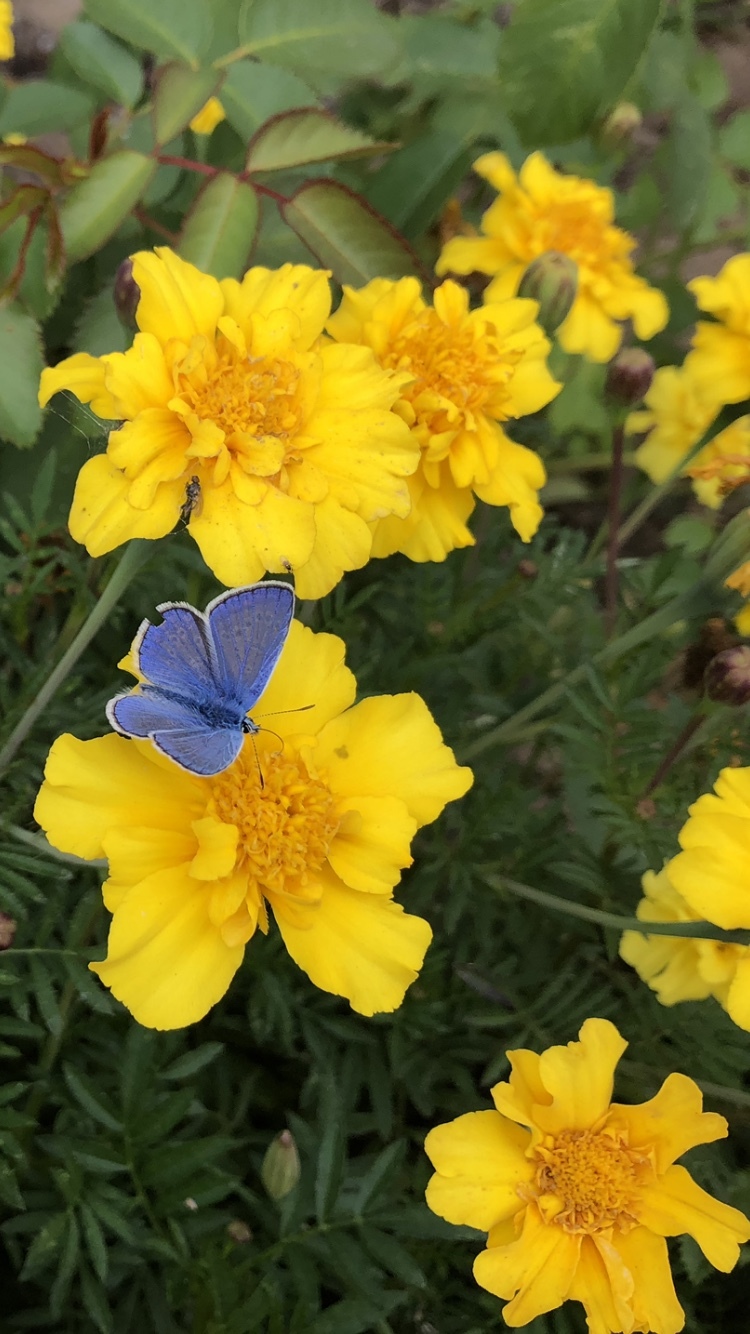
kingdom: Animalia
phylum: Arthropoda
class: Insecta
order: Lepidoptera
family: Lycaenidae
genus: Polyommatus
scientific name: Polyommatus icarus
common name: Common blue
